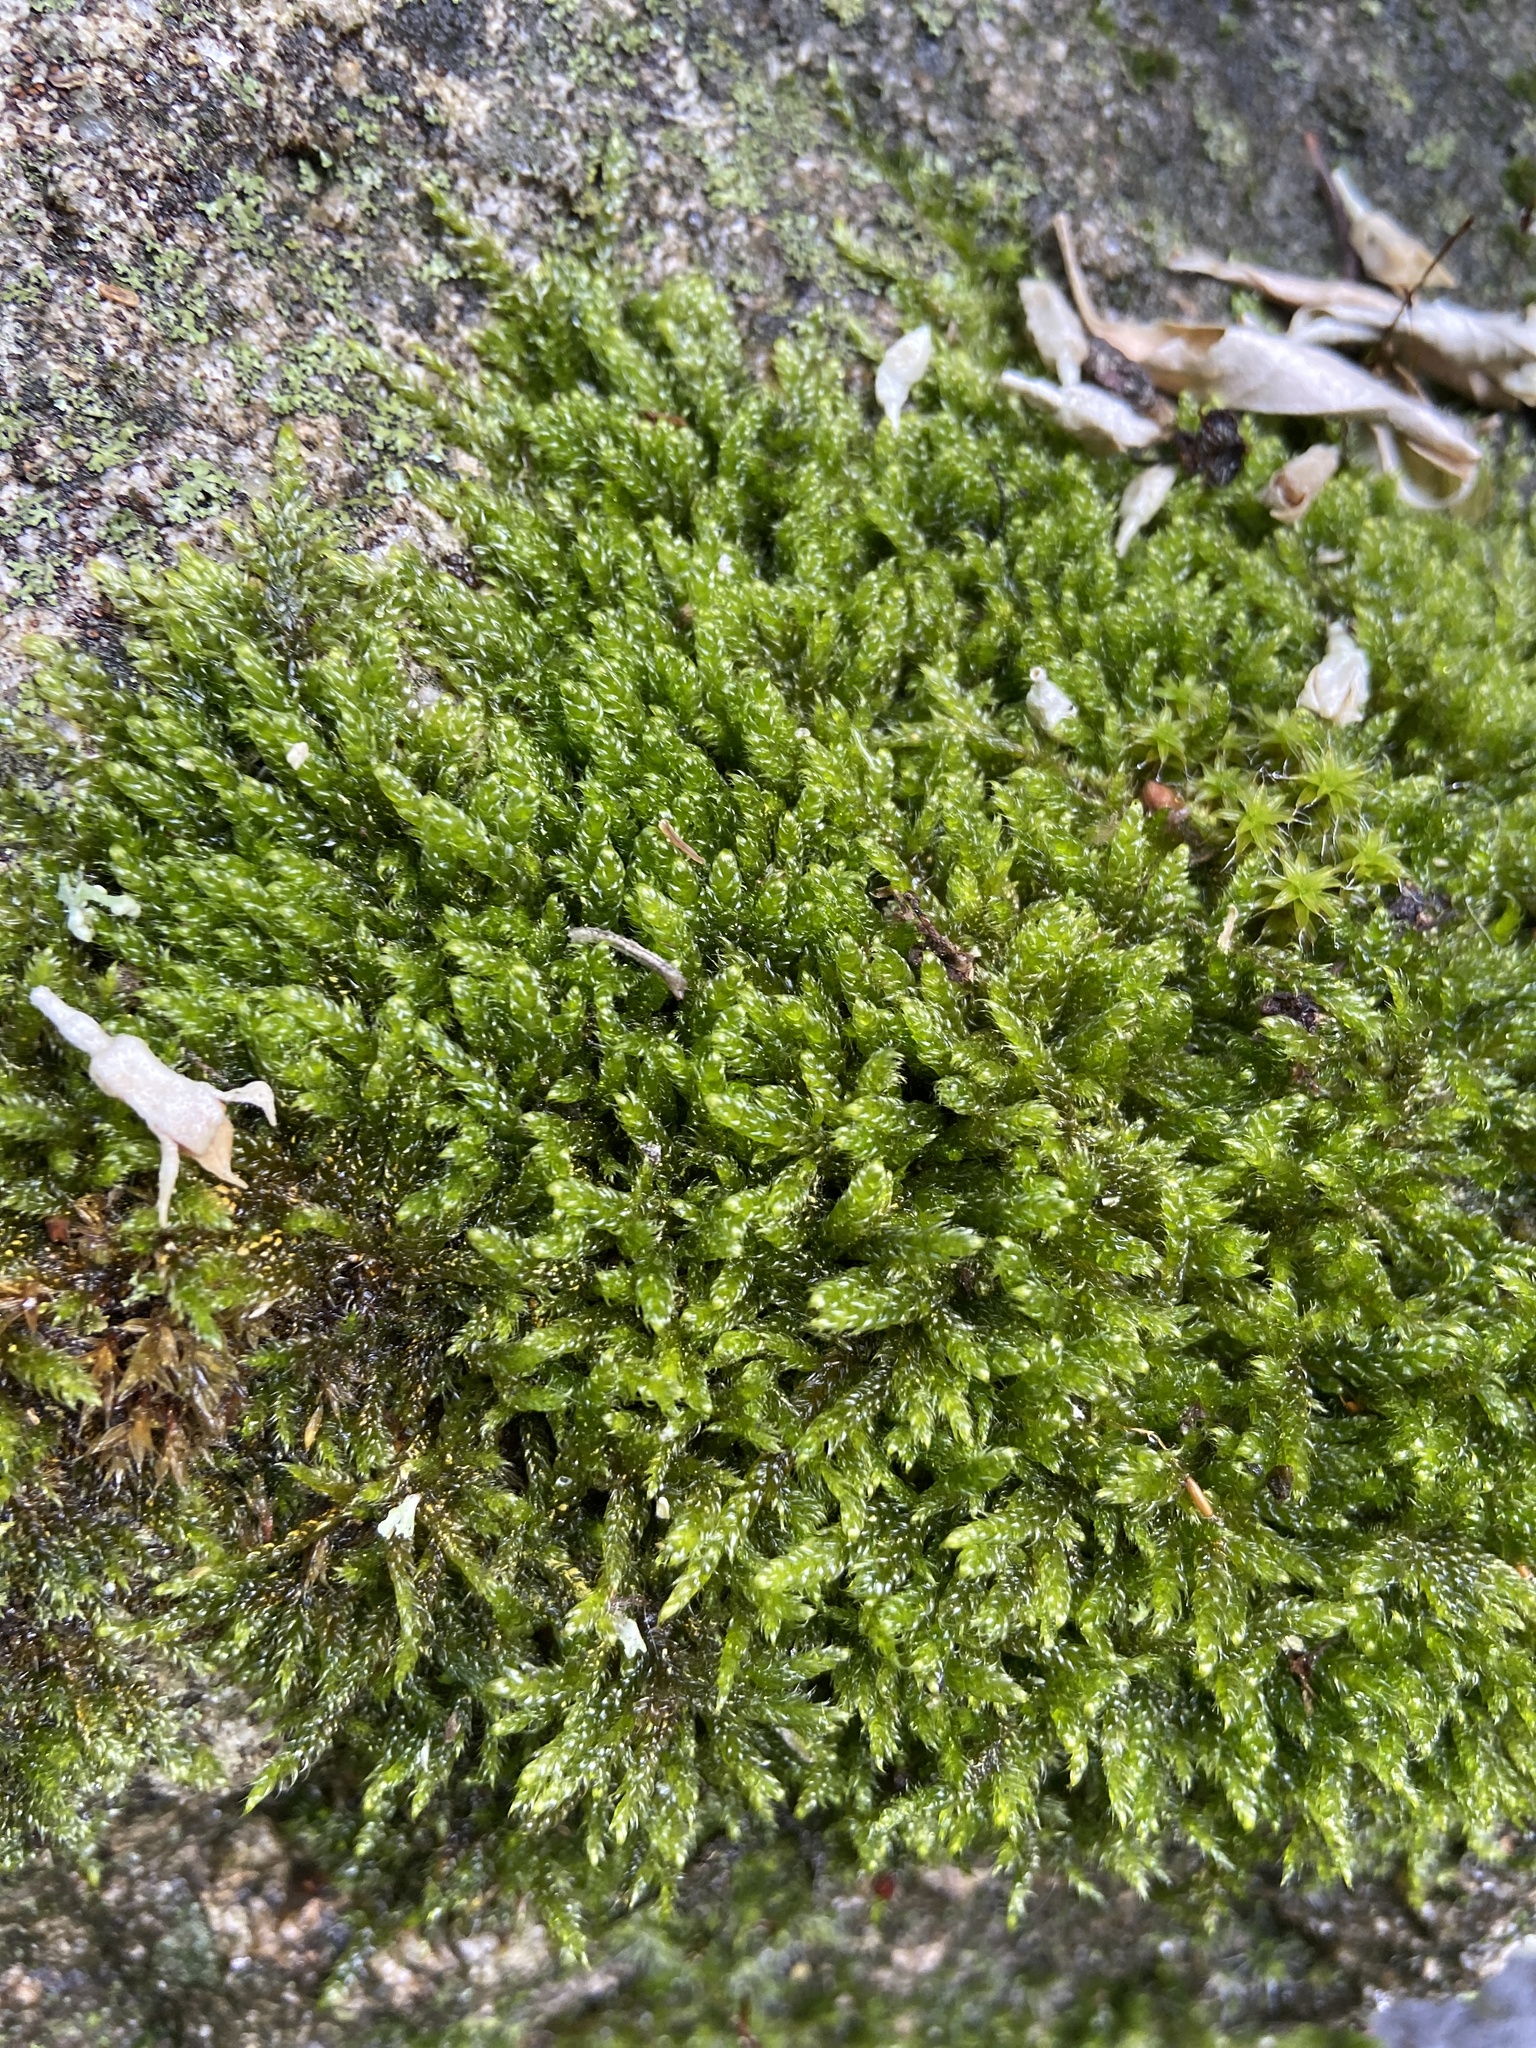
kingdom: Plantae
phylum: Bryophyta
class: Bryopsida
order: Hypnales
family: Hypnaceae
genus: Hypnum
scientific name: Hypnum cupressiforme
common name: Cypress-leaved plait-moss
